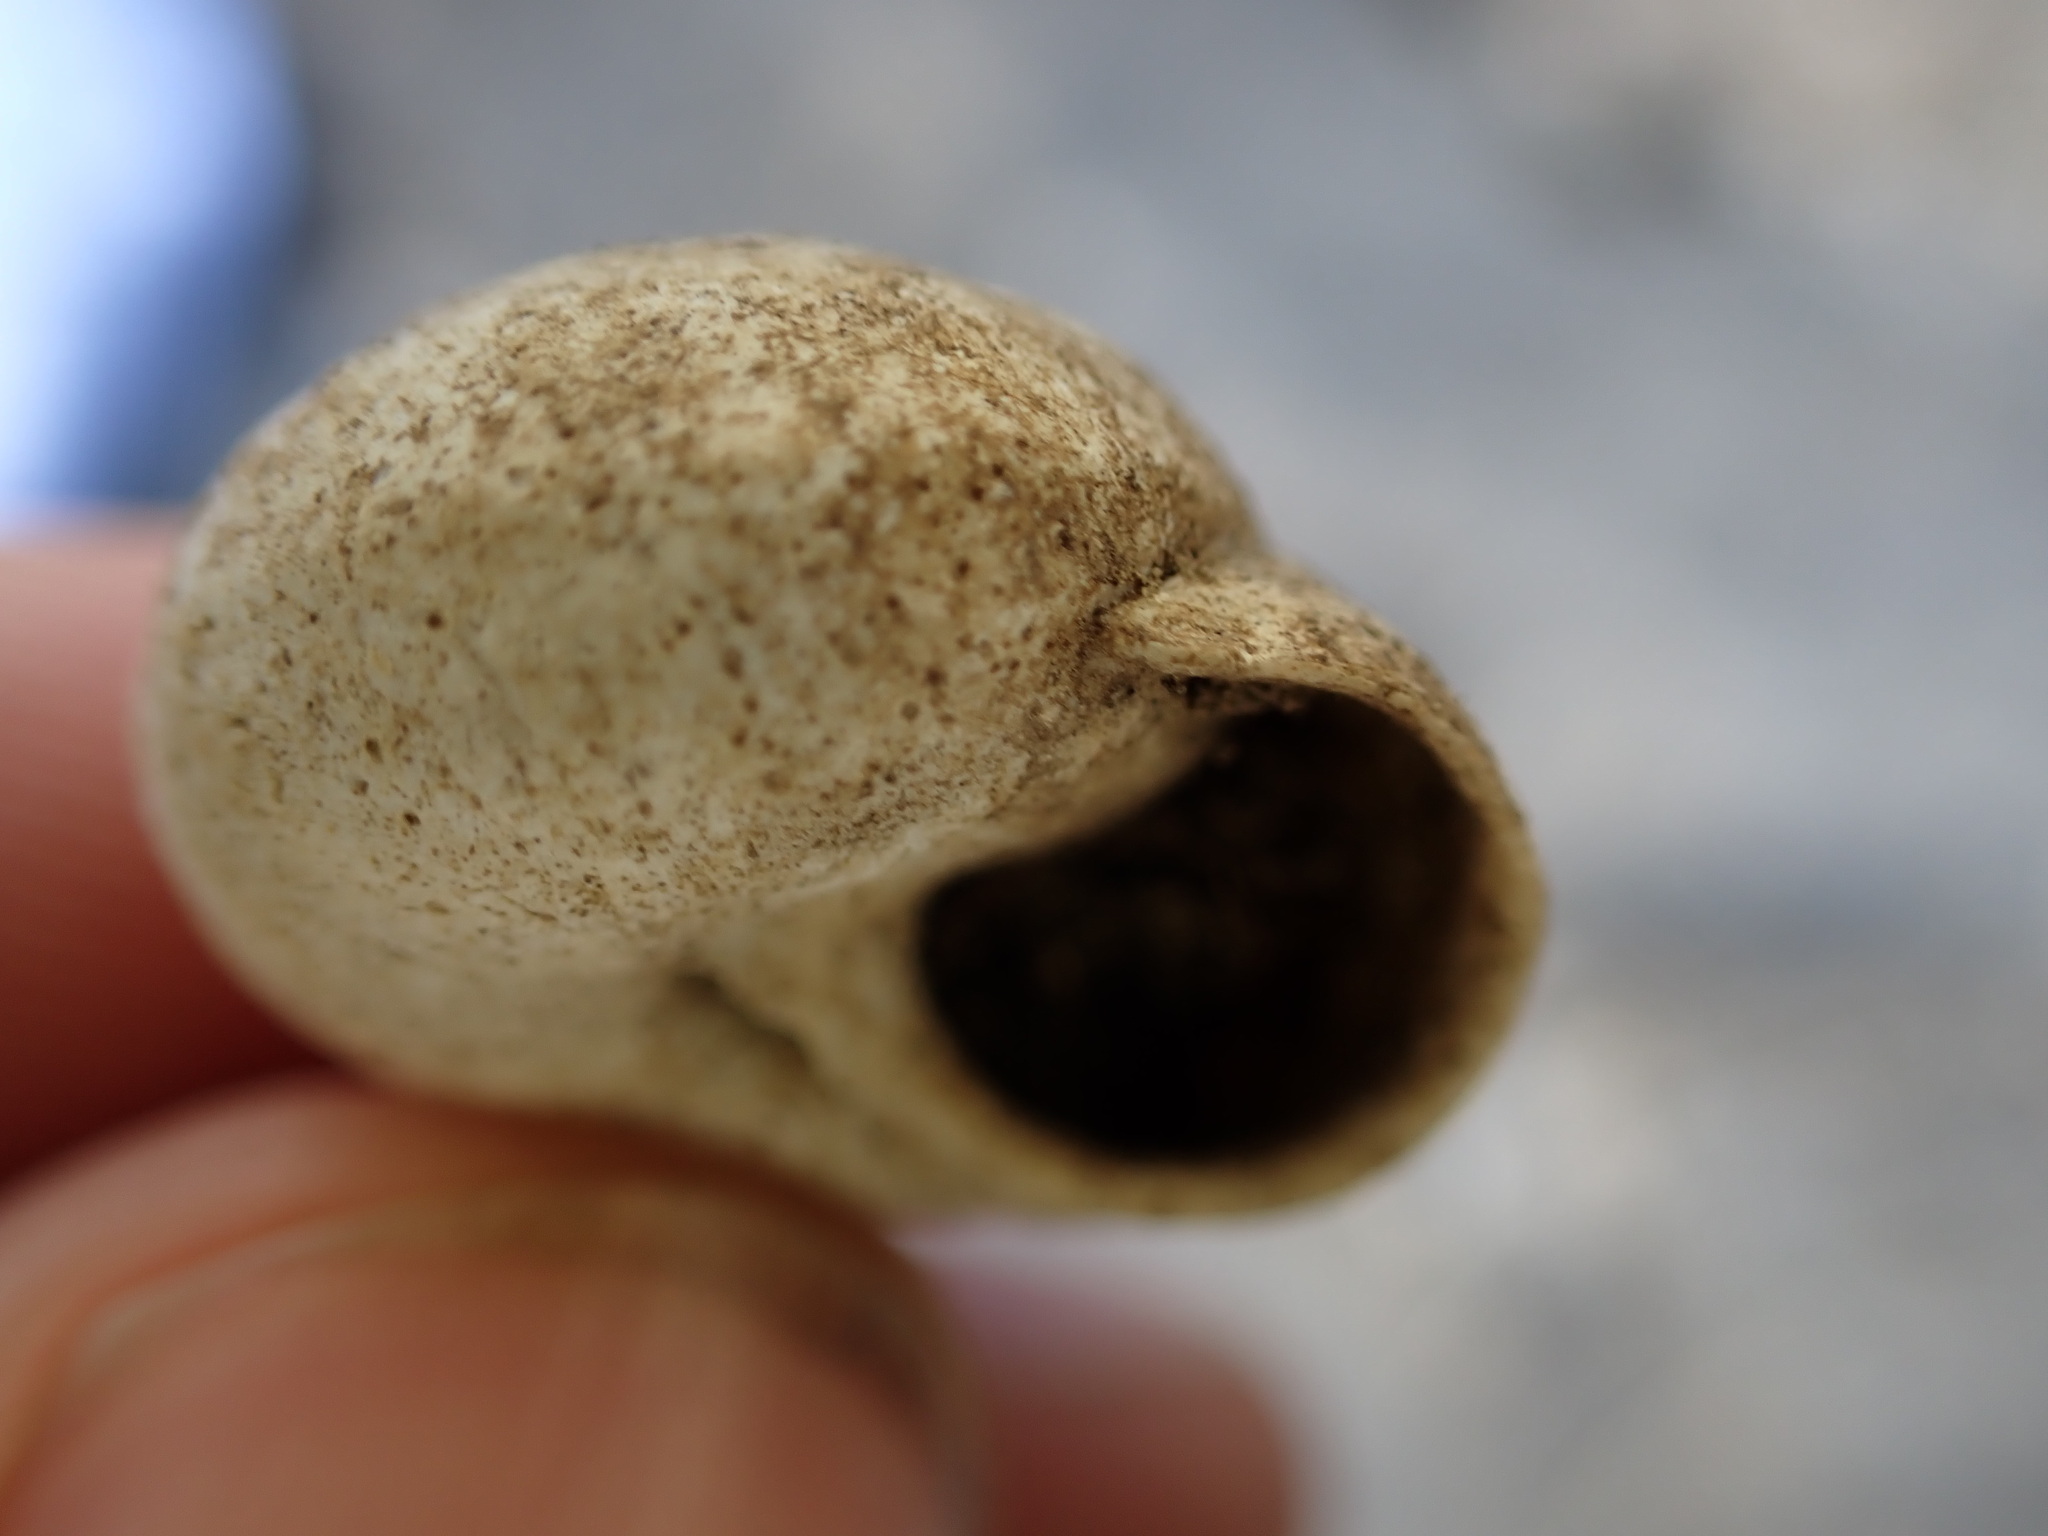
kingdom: Animalia
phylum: Mollusca
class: Gastropoda
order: Stylommatophora
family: Sphincterochilidae
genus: Sphincterochila
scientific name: Sphincterochila candidissima
